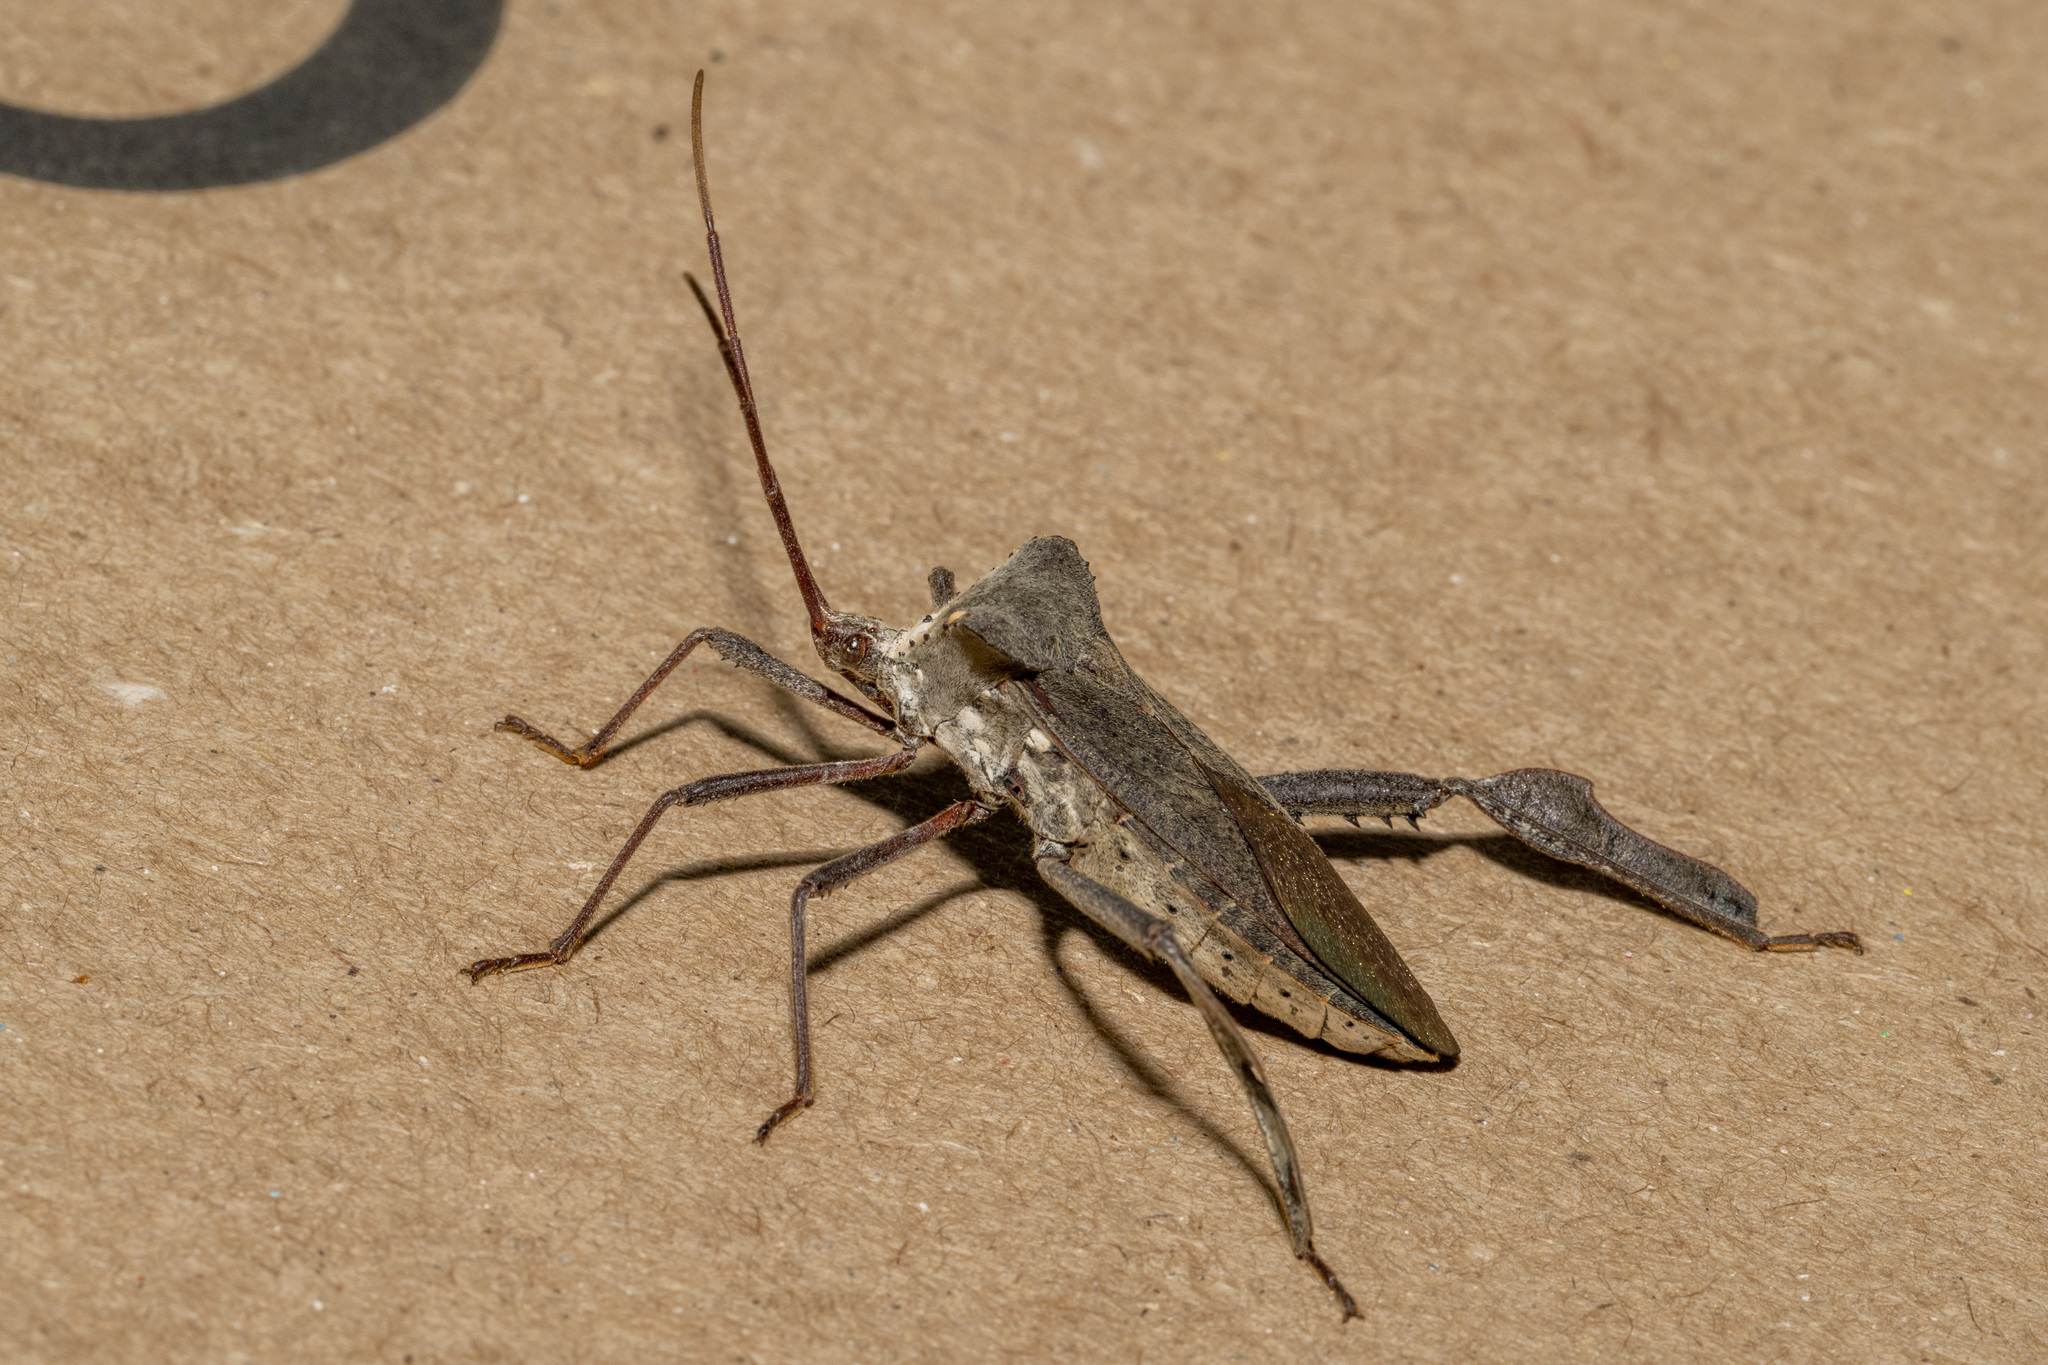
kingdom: Animalia
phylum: Arthropoda
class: Insecta
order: Hemiptera
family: Coreidae
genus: Acanthocephala
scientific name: Acanthocephala declivis
